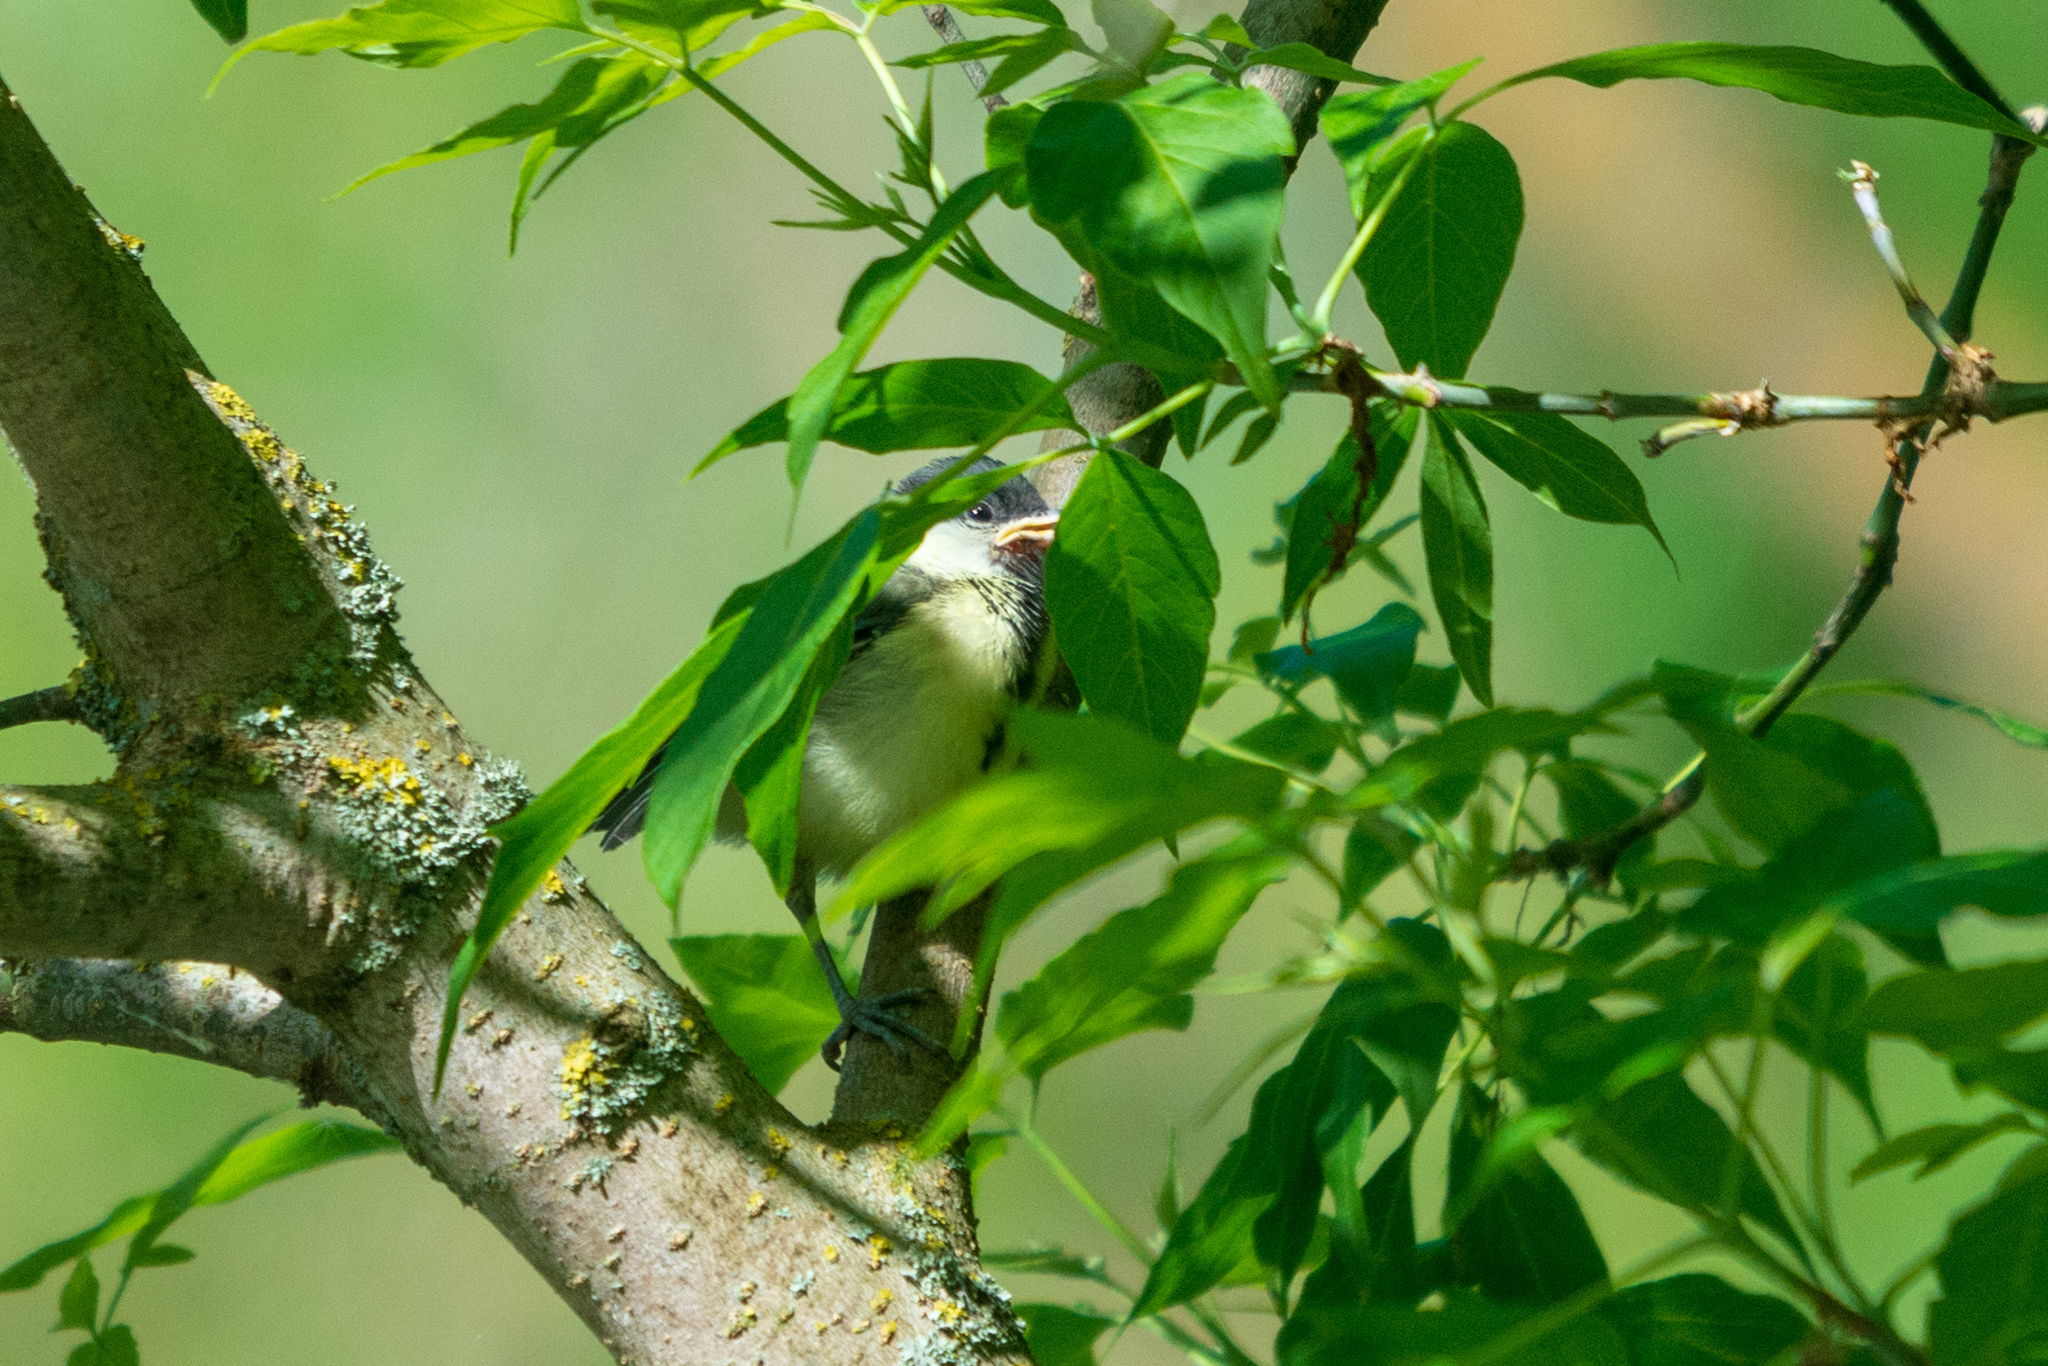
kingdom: Animalia
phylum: Chordata
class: Aves
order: Passeriformes
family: Paridae
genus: Parus
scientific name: Parus major
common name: Great tit
